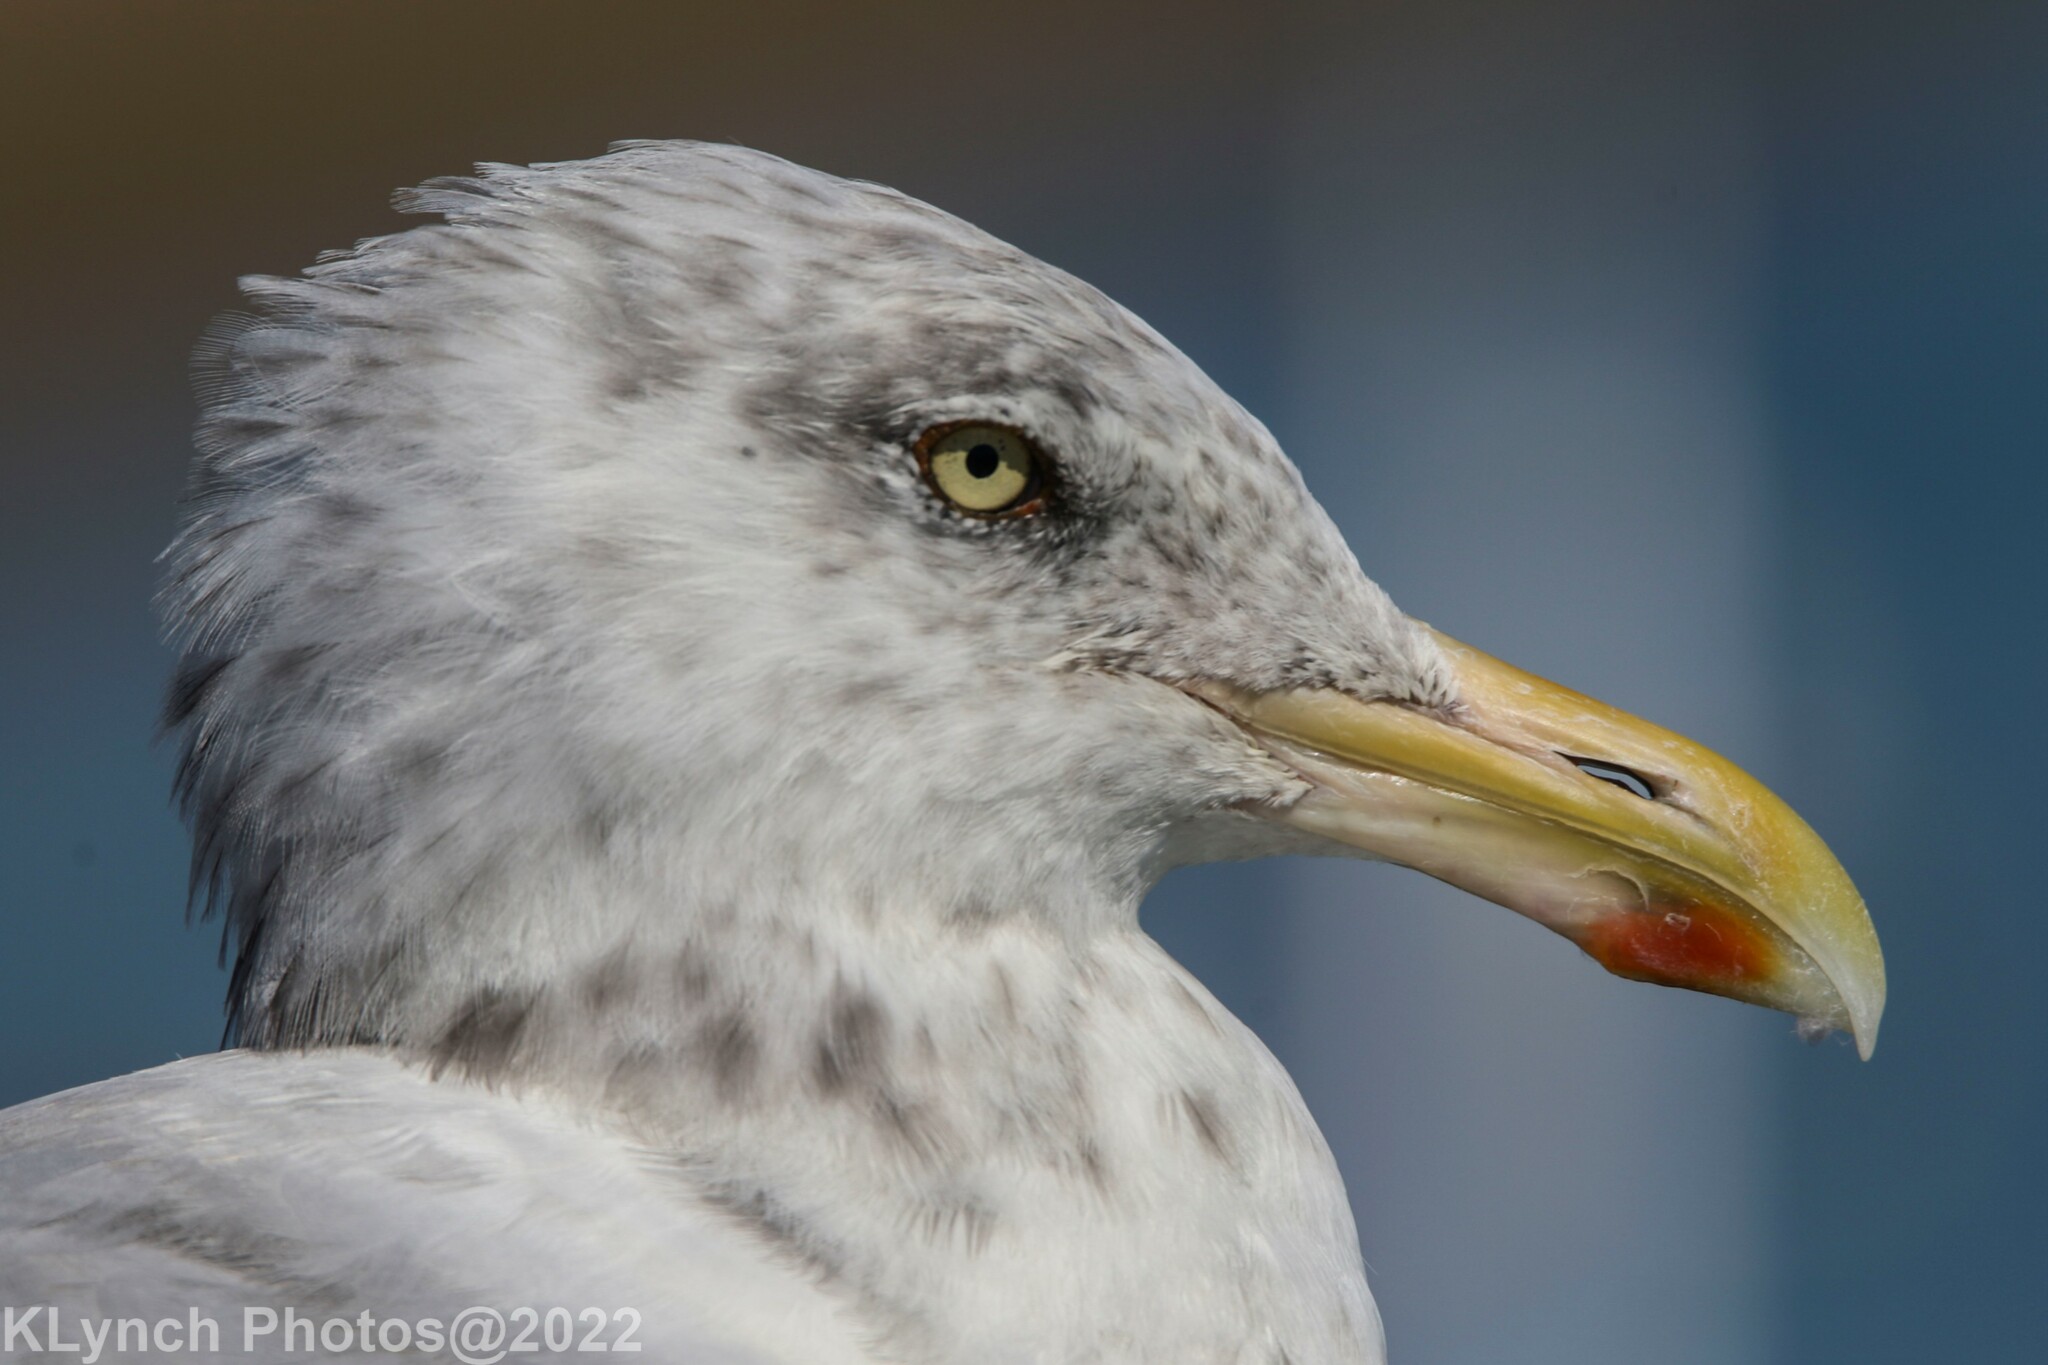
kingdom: Animalia
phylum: Chordata
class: Aves
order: Charadriiformes
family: Laridae
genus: Larus
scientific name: Larus argentatus
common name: Herring gull
